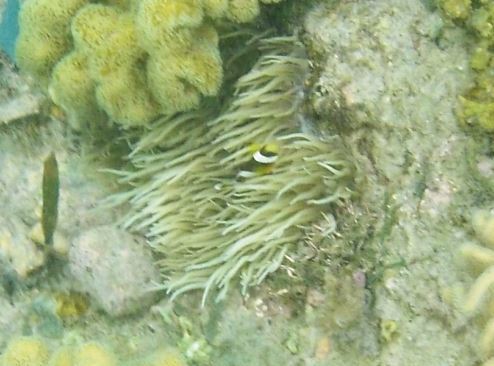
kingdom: Animalia
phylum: Cnidaria
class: Anthozoa
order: Actiniaria
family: Stichodactylidae
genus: Radianthus
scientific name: Radianthus crispa
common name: Leather anemone
